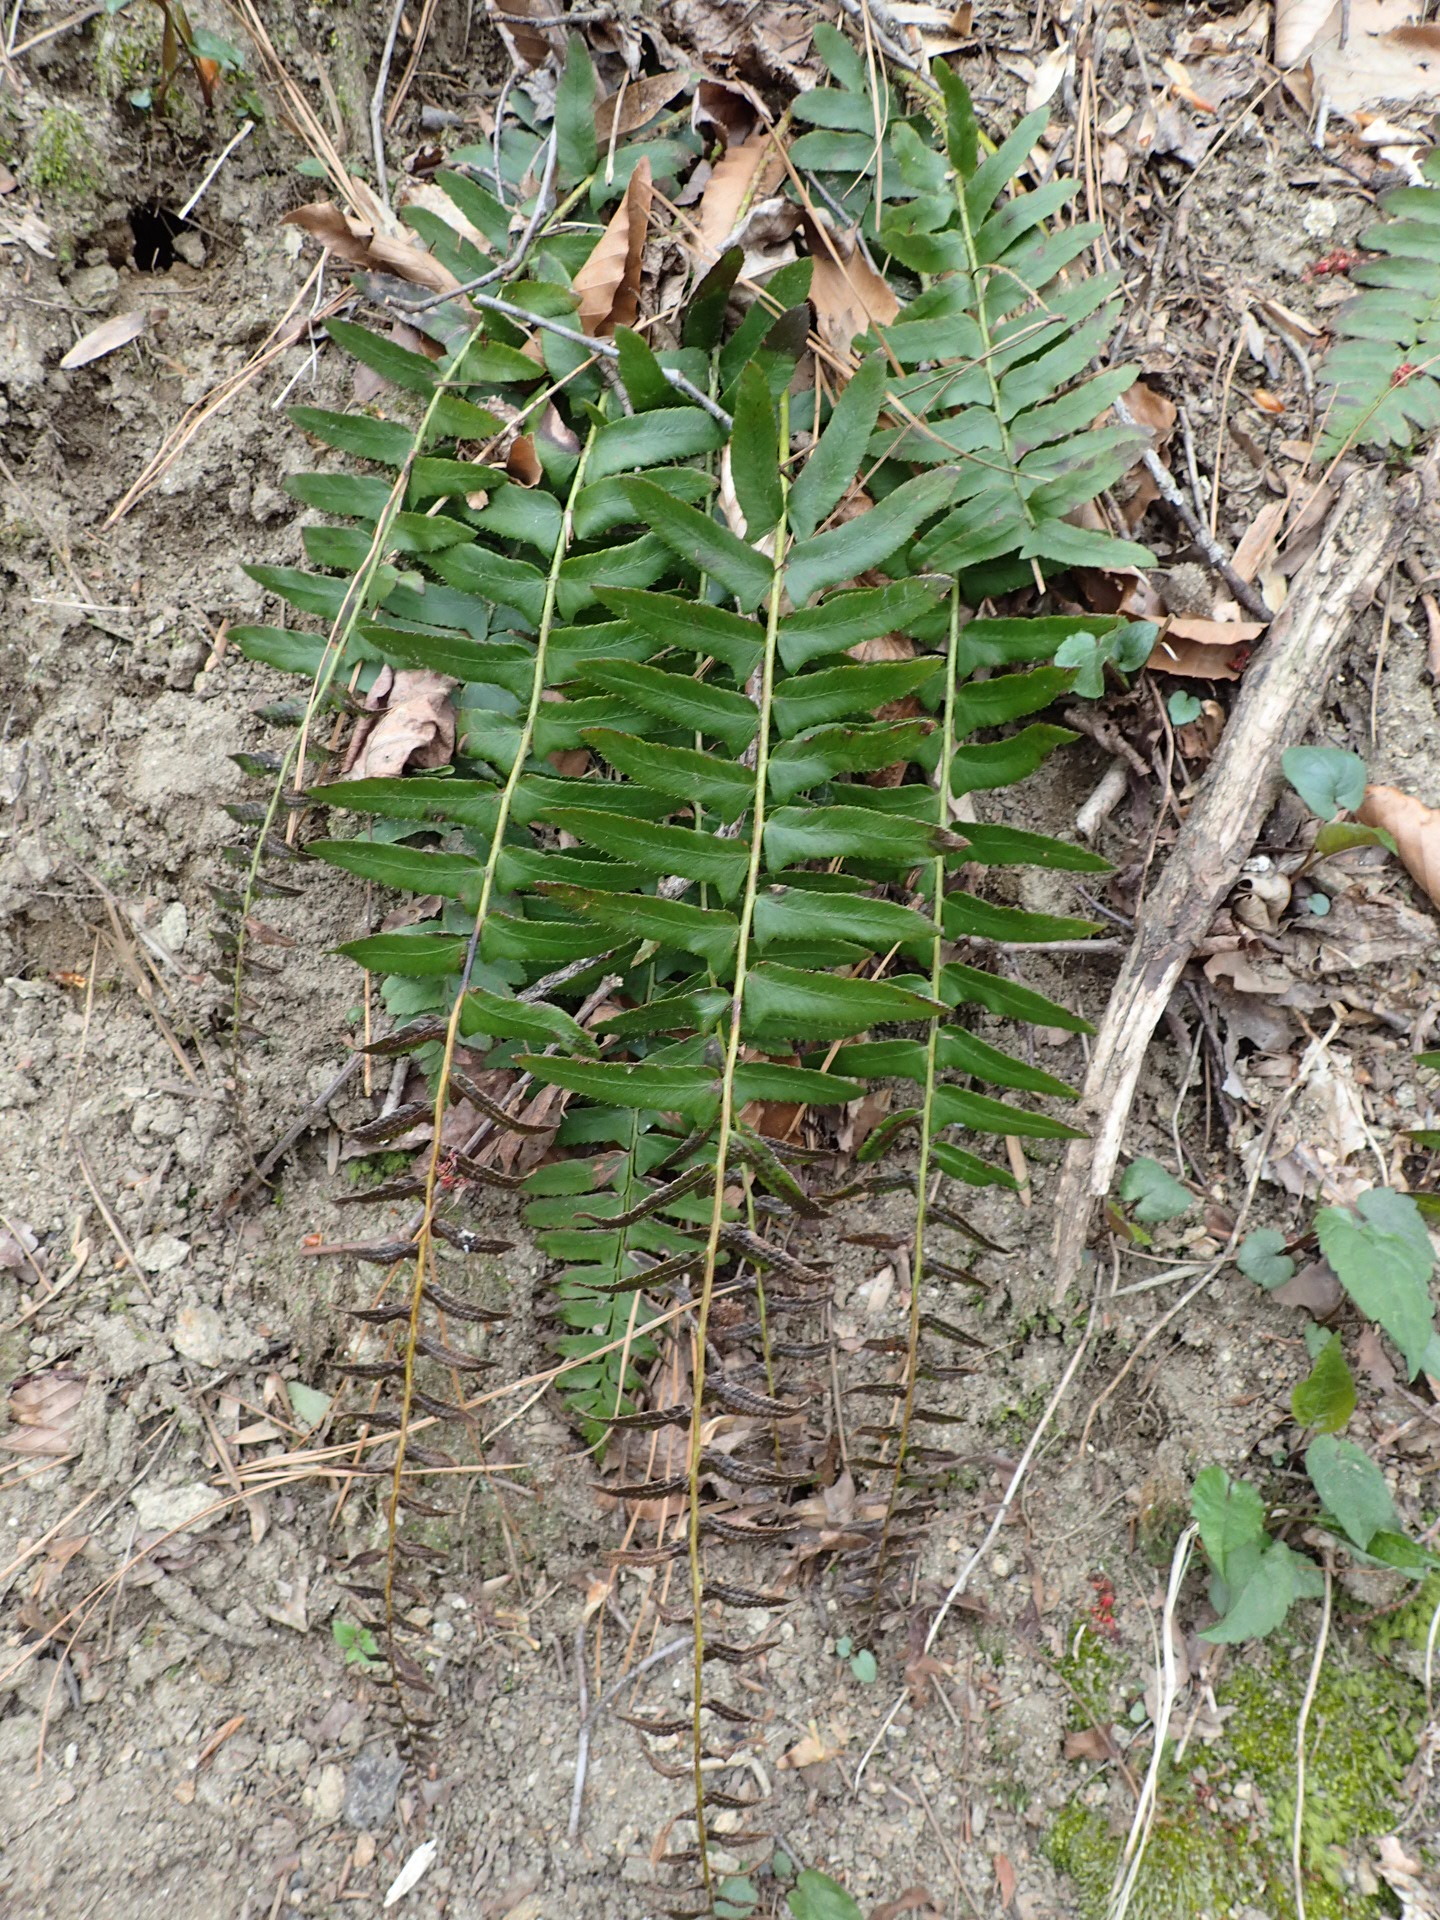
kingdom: Plantae
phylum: Tracheophyta
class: Polypodiopsida
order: Polypodiales
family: Dryopteridaceae
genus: Polystichum
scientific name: Polystichum acrostichoides
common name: Christmas fern
